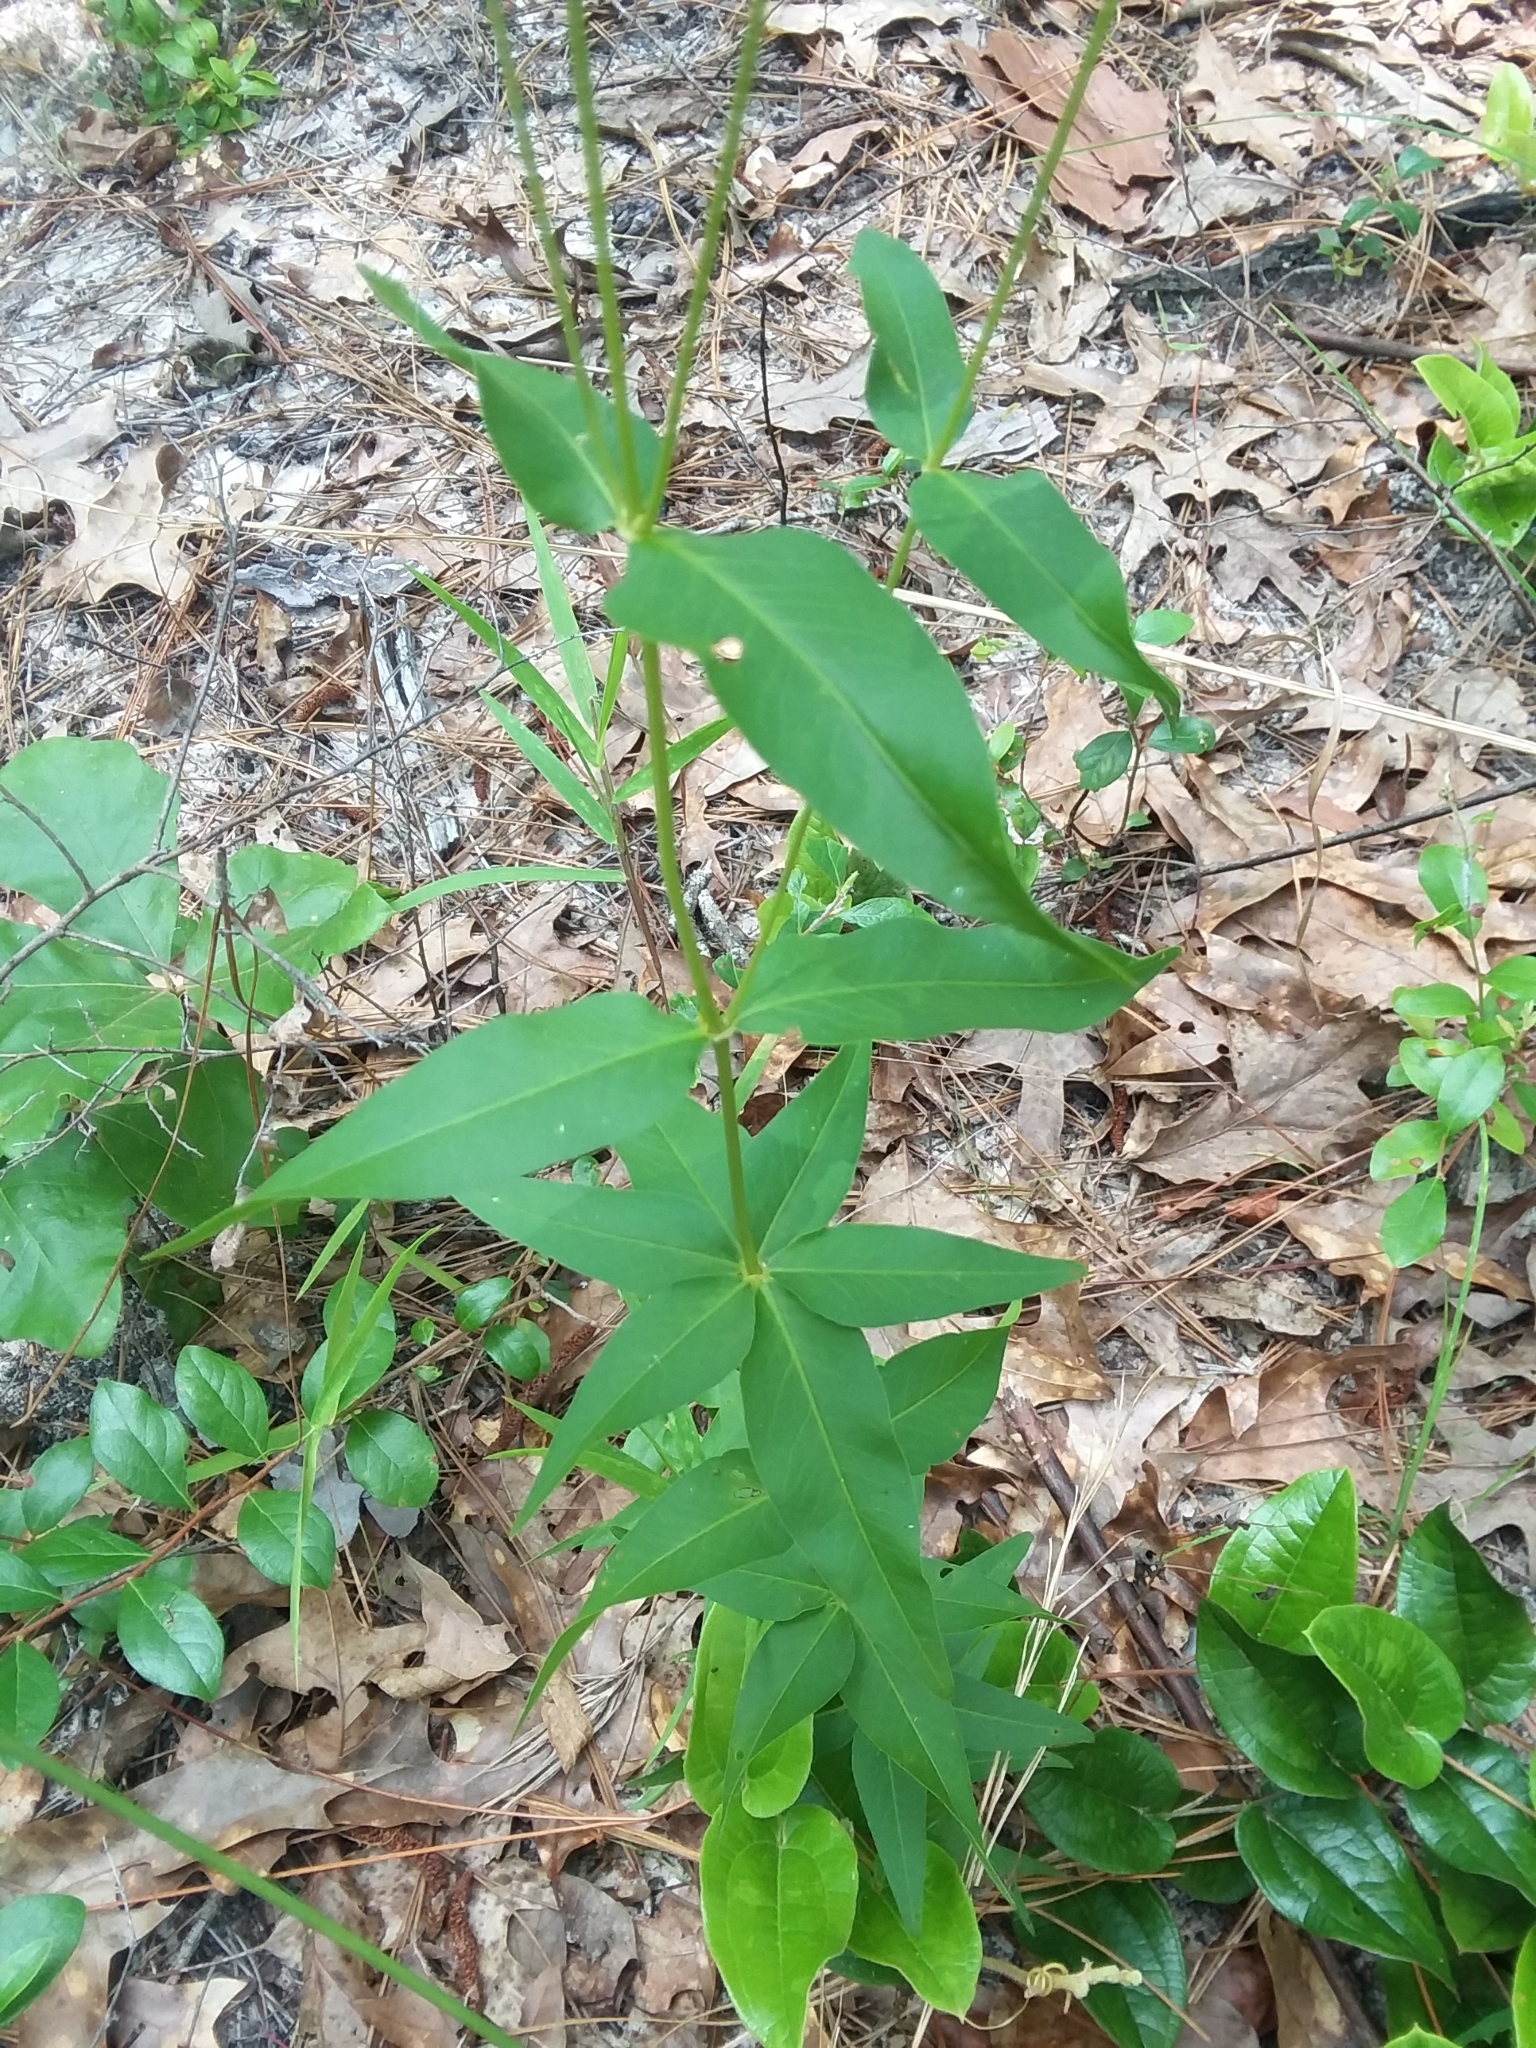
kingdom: Plantae
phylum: Tracheophyta
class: Magnoliopsida
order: Asterales
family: Asteraceae
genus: Coreopsis
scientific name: Coreopsis major
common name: Forest tickseed
